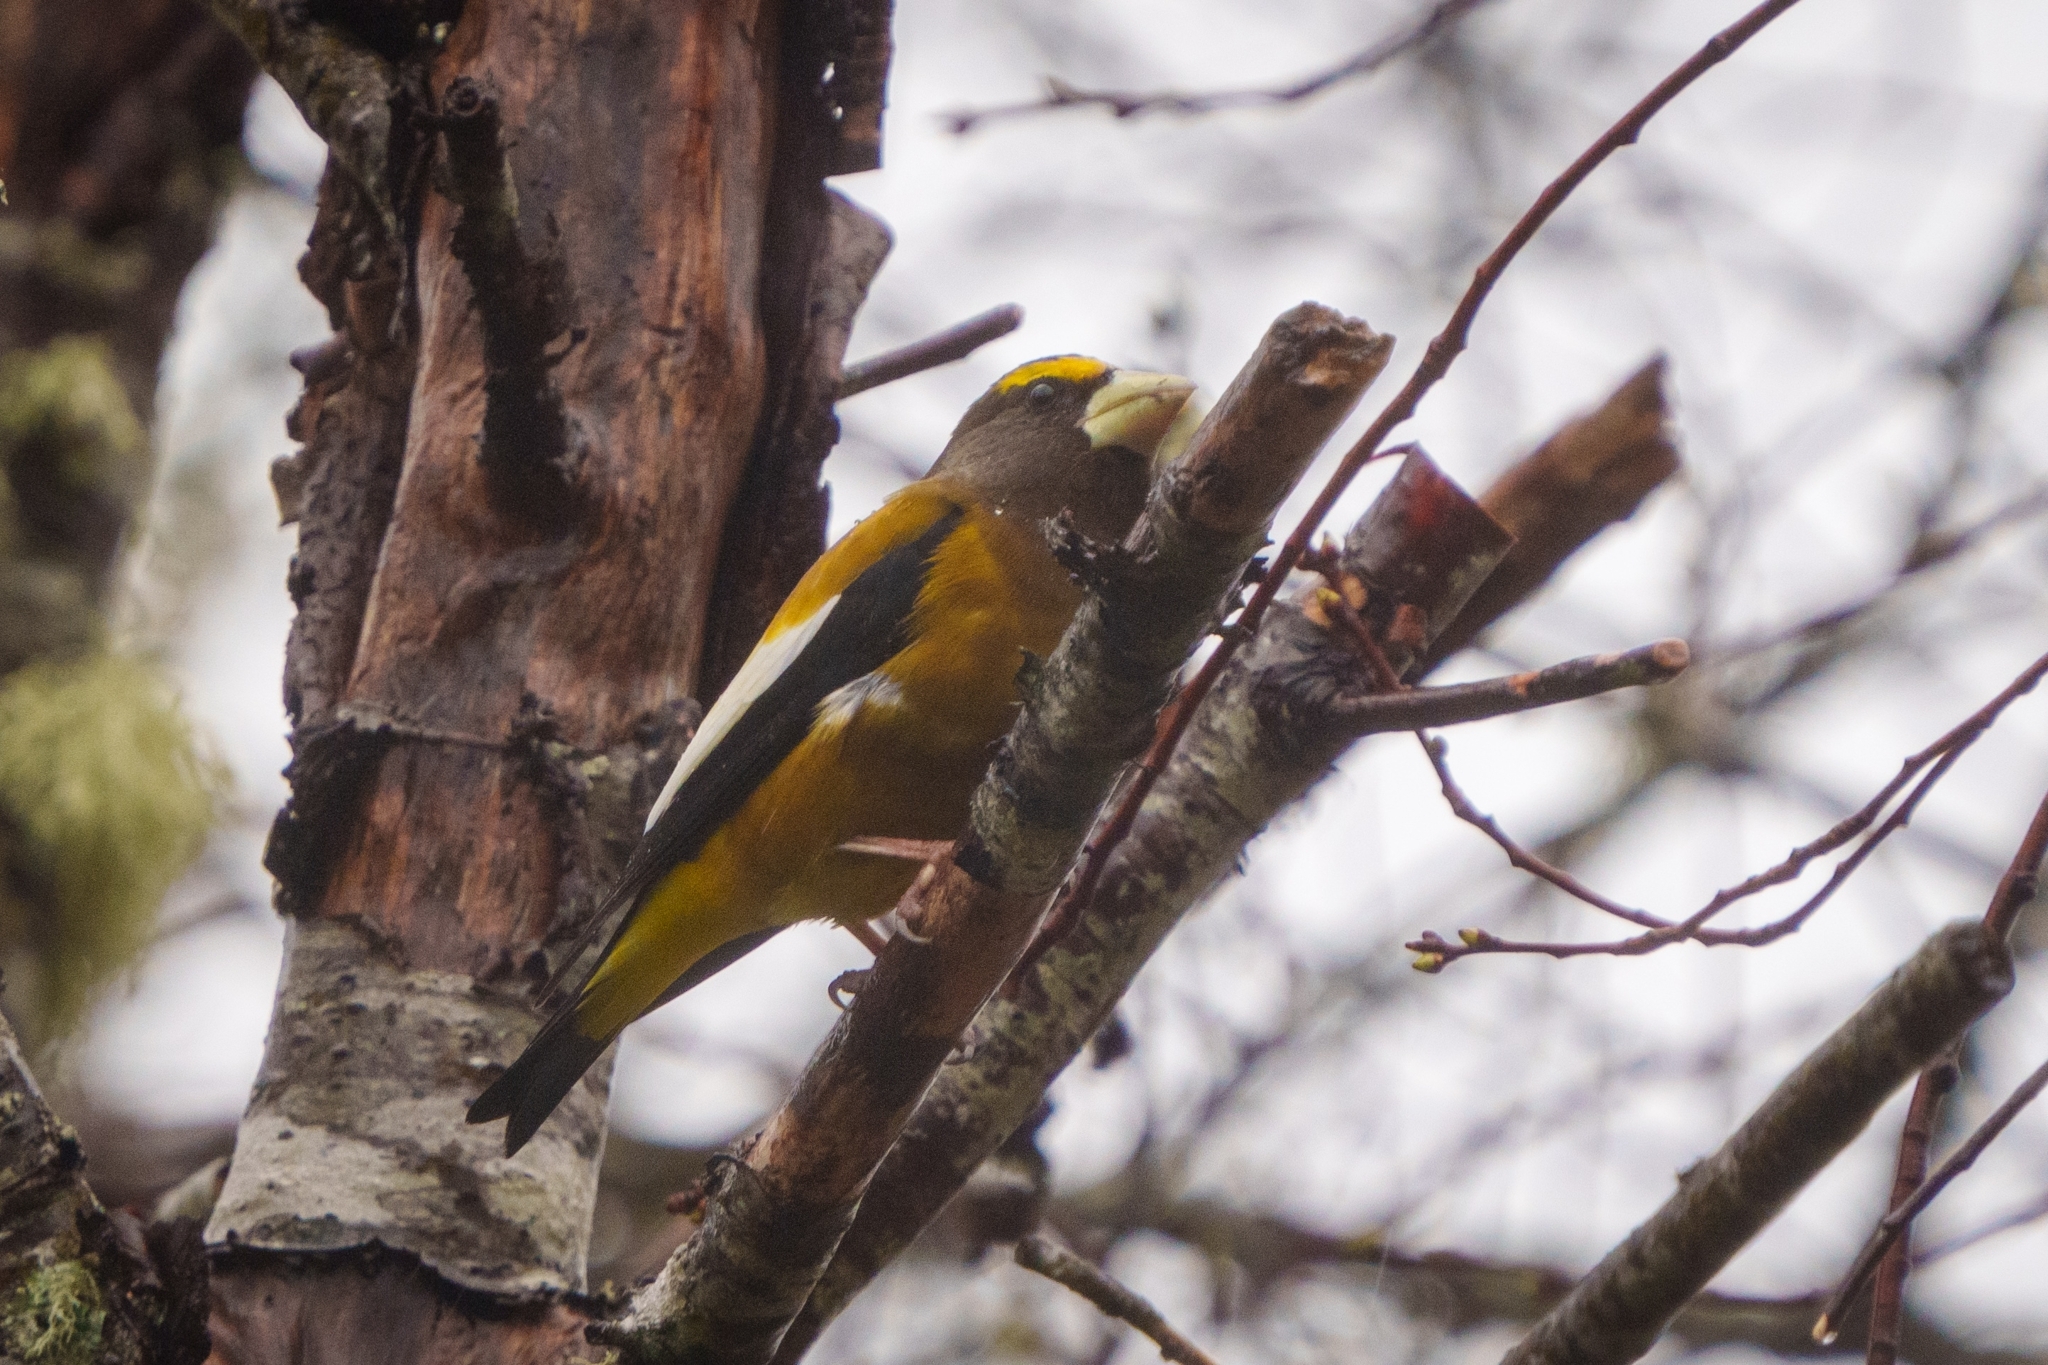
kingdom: Animalia
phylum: Chordata
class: Aves
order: Passeriformes
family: Fringillidae
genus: Hesperiphona
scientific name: Hesperiphona vespertina
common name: Evening grosbeak
